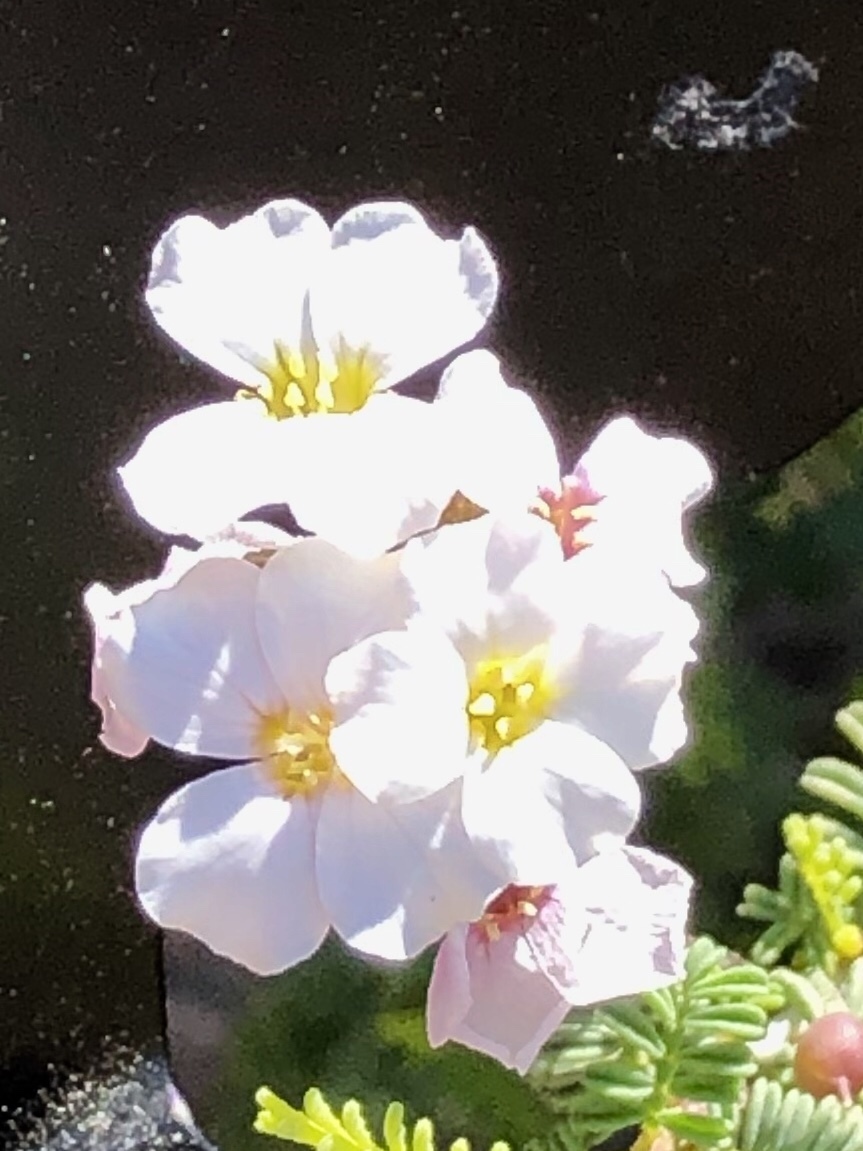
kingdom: Plantae
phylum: Tracheophyta
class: Magnoliopsida
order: Brassicales
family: Brassicaceae
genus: Physaria
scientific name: Physaria purpurea
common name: Rose bladderpod
